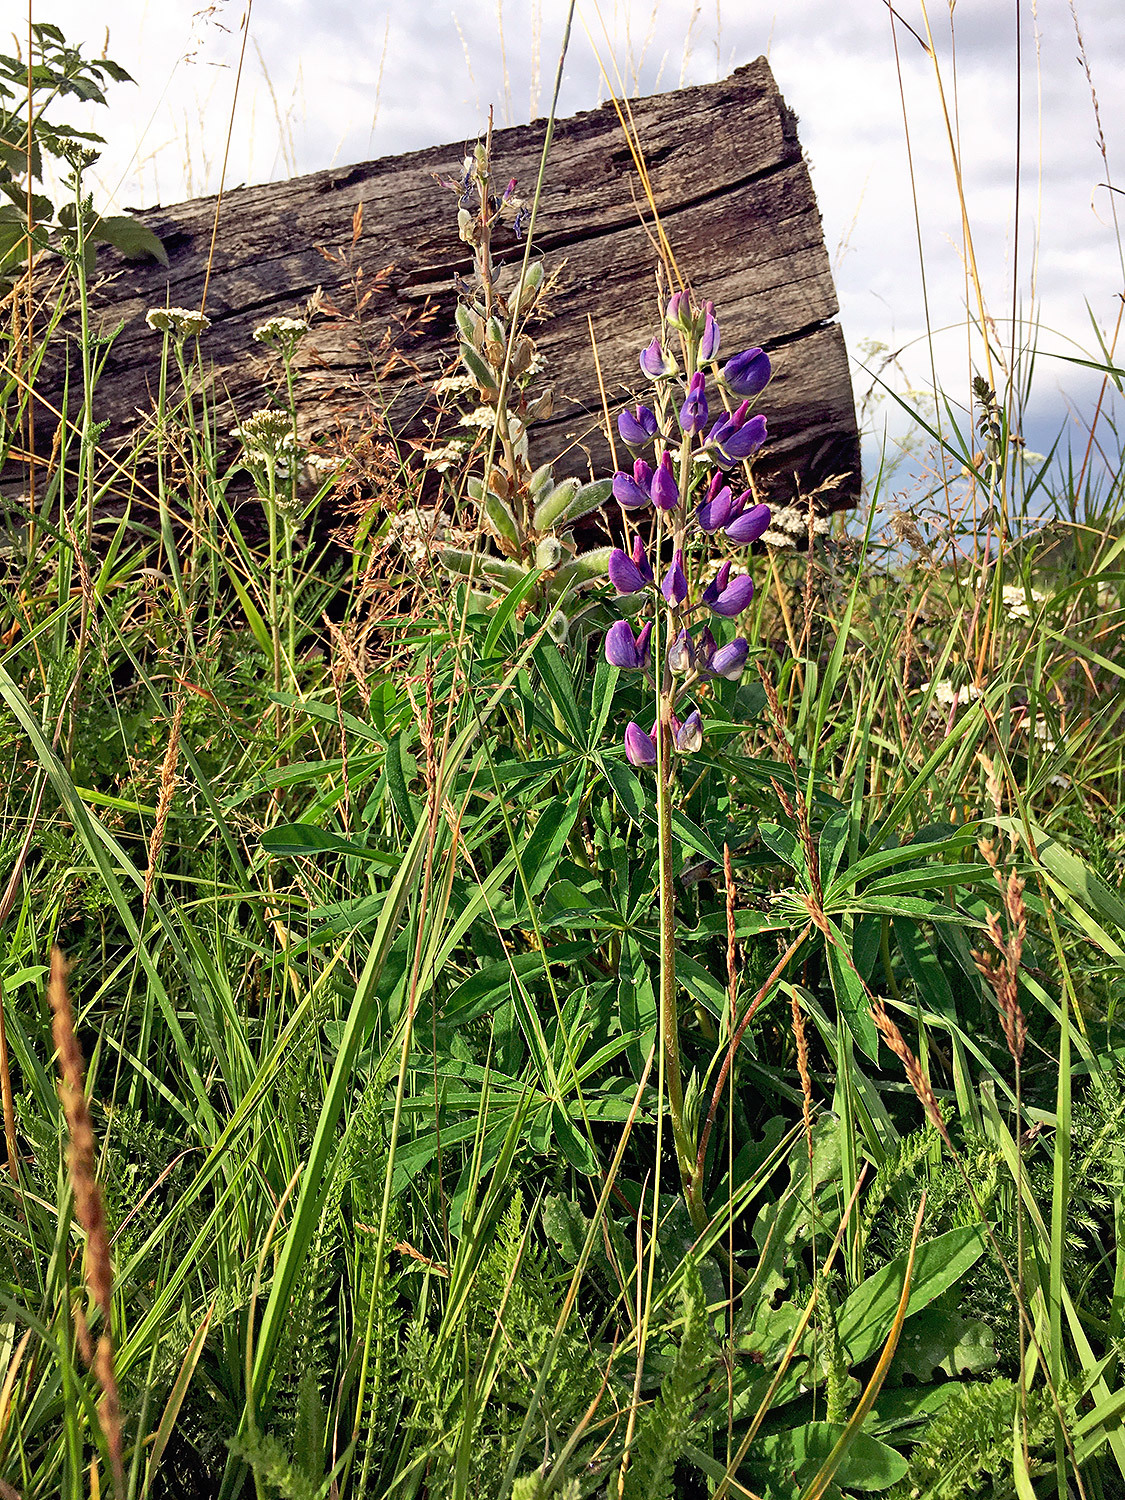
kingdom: Plantae
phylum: Tracheophyta
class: Magnoliopsida
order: Fabales
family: Fabaceae
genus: Lupinus
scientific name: Lupinus polyphyllus
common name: Garden lupin
